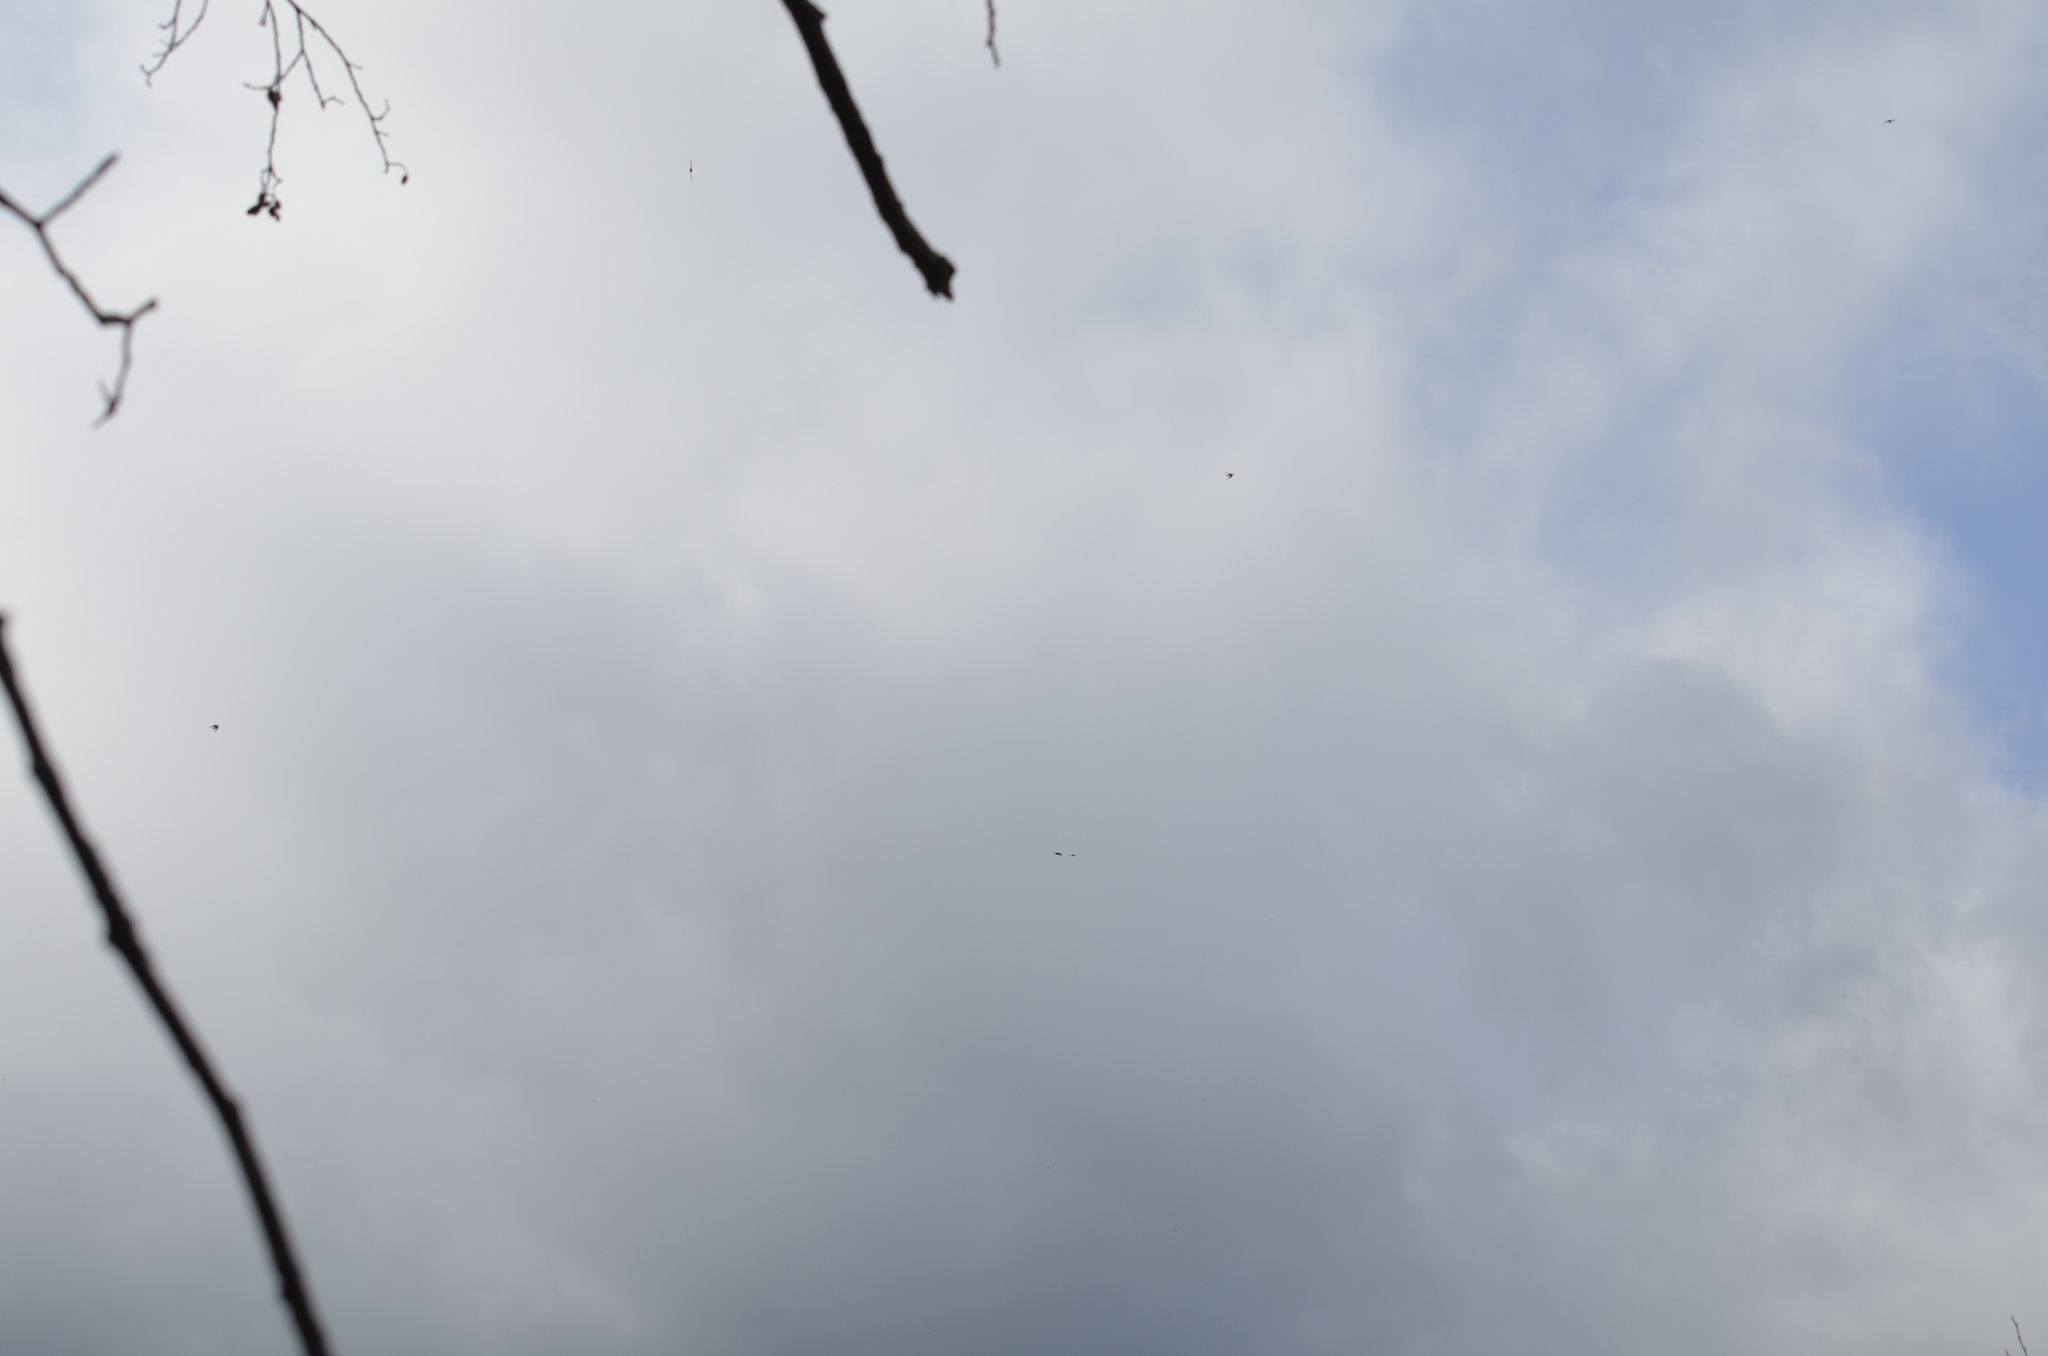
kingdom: Animalia
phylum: Chordata
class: Aves
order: Passeriformes
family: Hirundinidae
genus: Tachycineta
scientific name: Tachycineta thalassina
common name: Violet-green swallow
